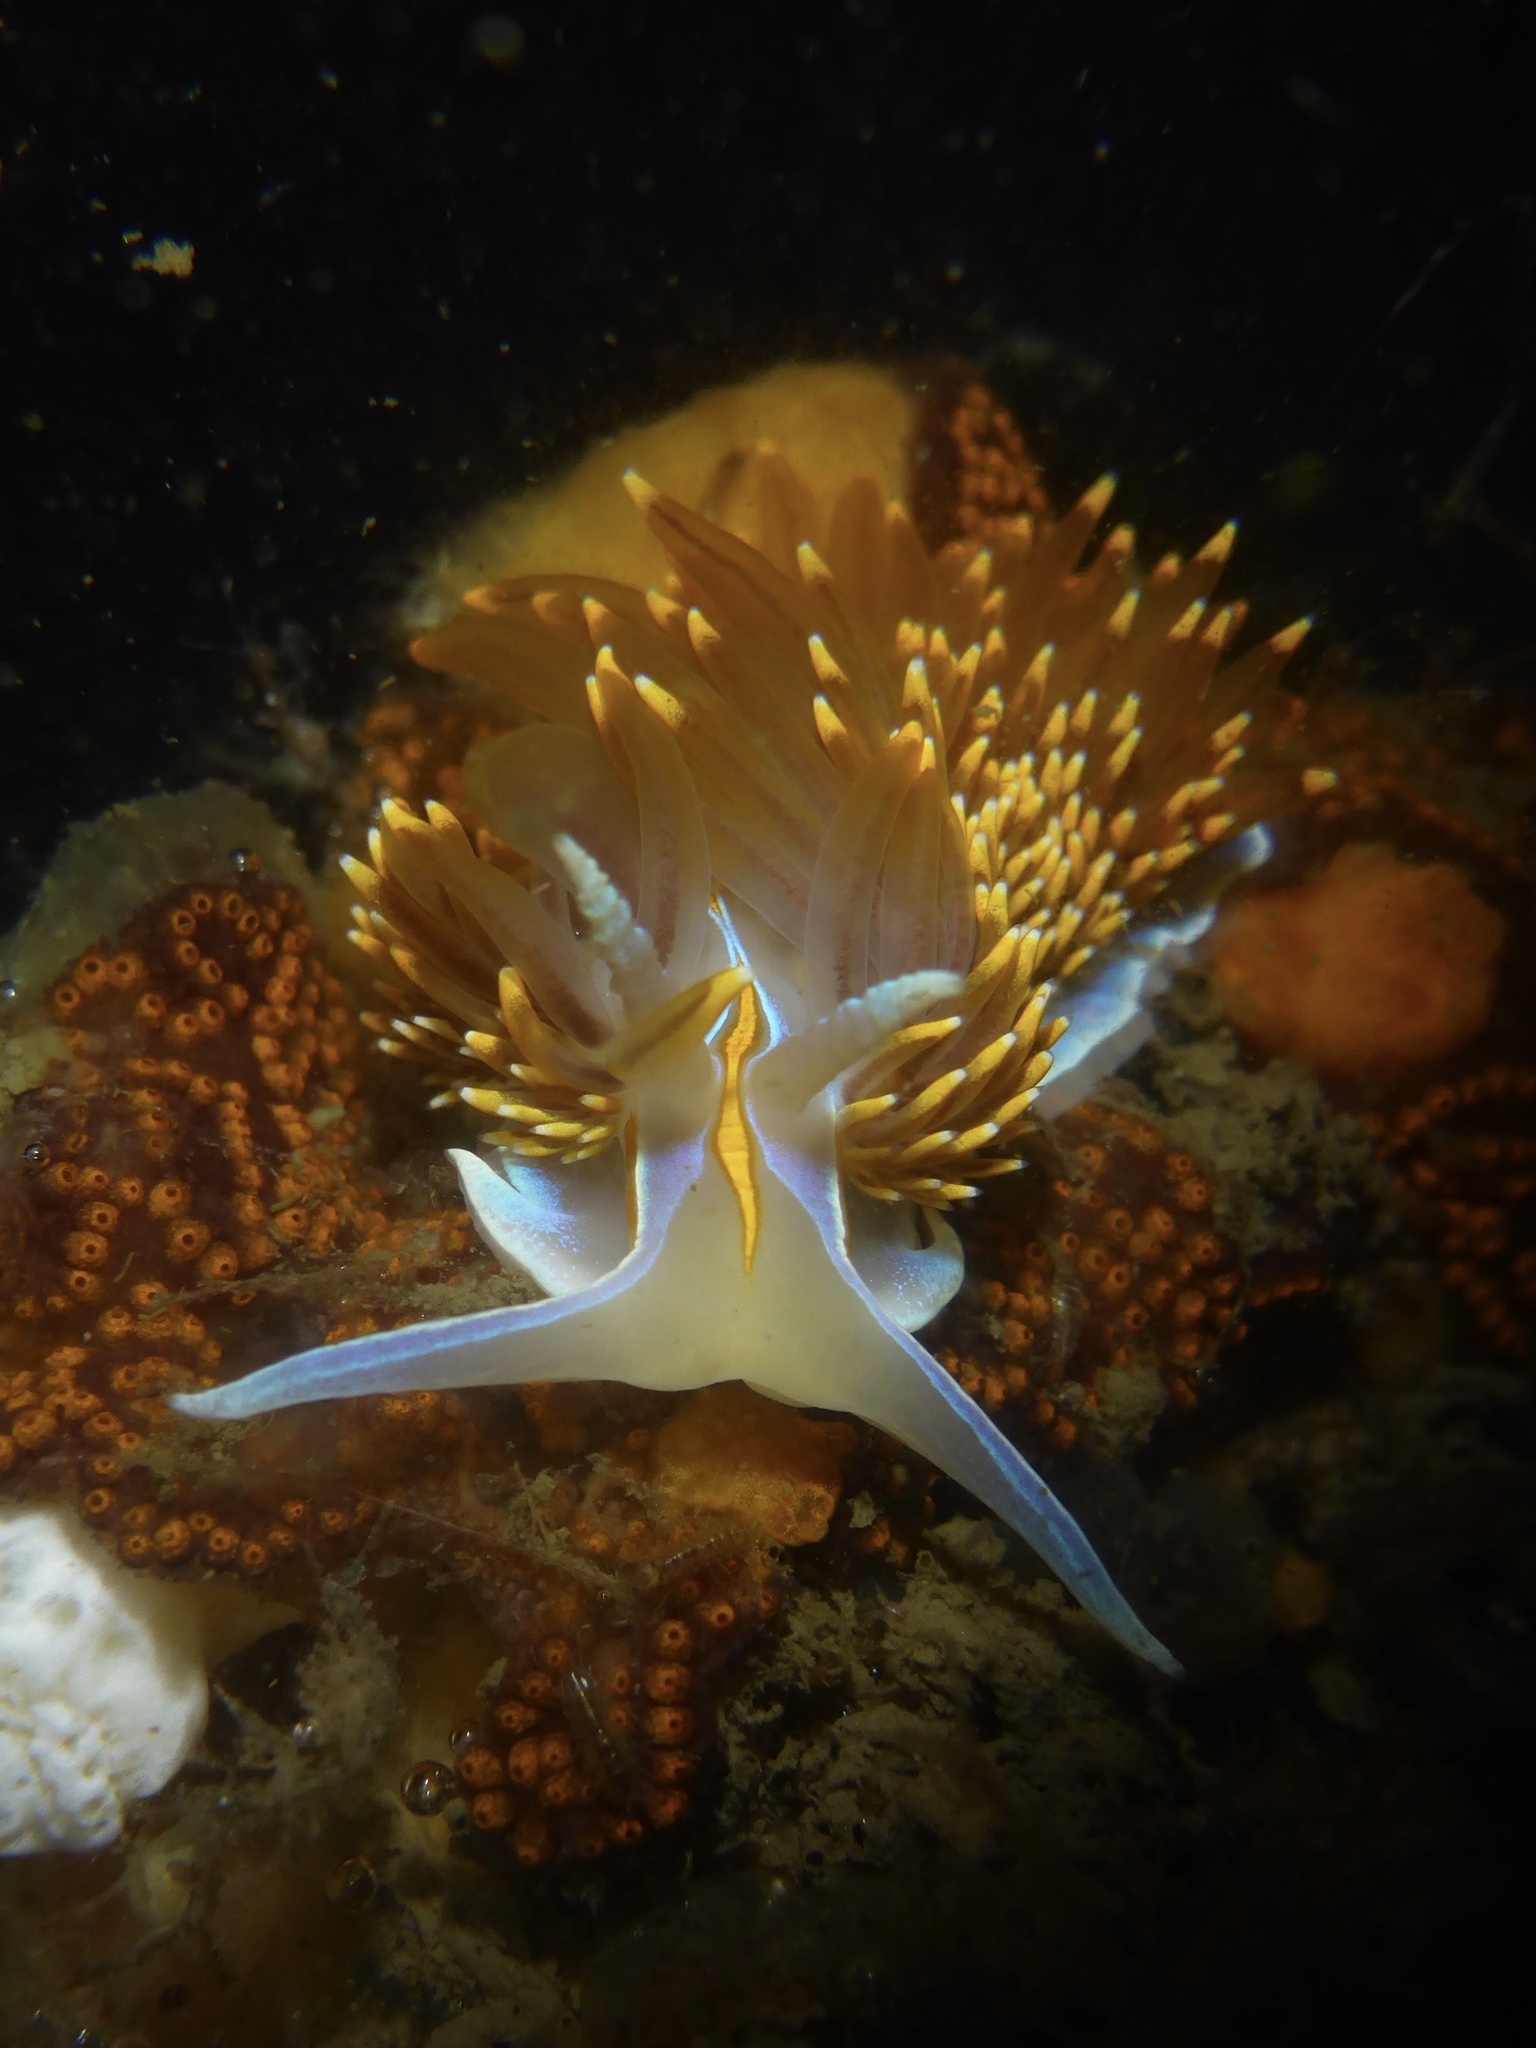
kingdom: Animalia
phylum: Mollusca
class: Gastropoda
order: Nudibranchia
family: Myrrhinidae
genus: Hermissenda
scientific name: Hermissenda opalescens
